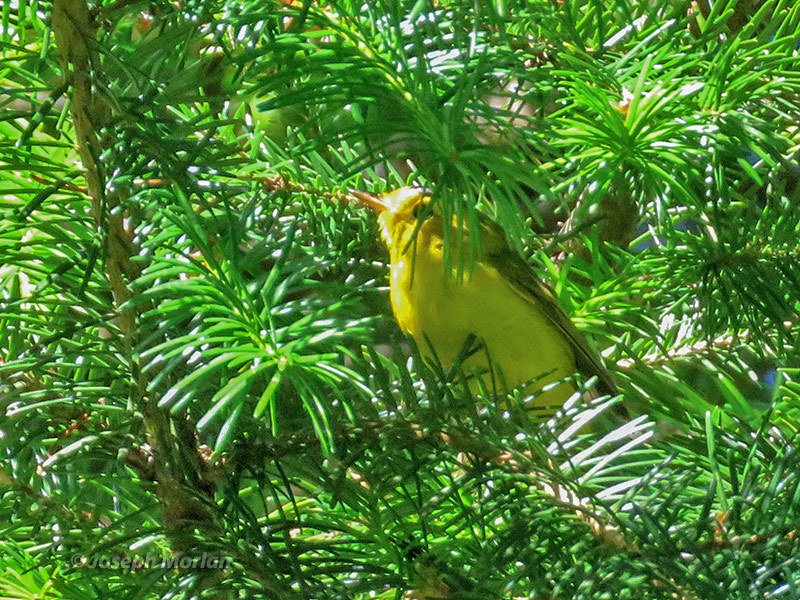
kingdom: Animalia
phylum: Chordata
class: Aves
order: Passeriformes
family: Parulidae
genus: Cardellina
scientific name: Cardellina pusilla
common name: Wilson's warbler
